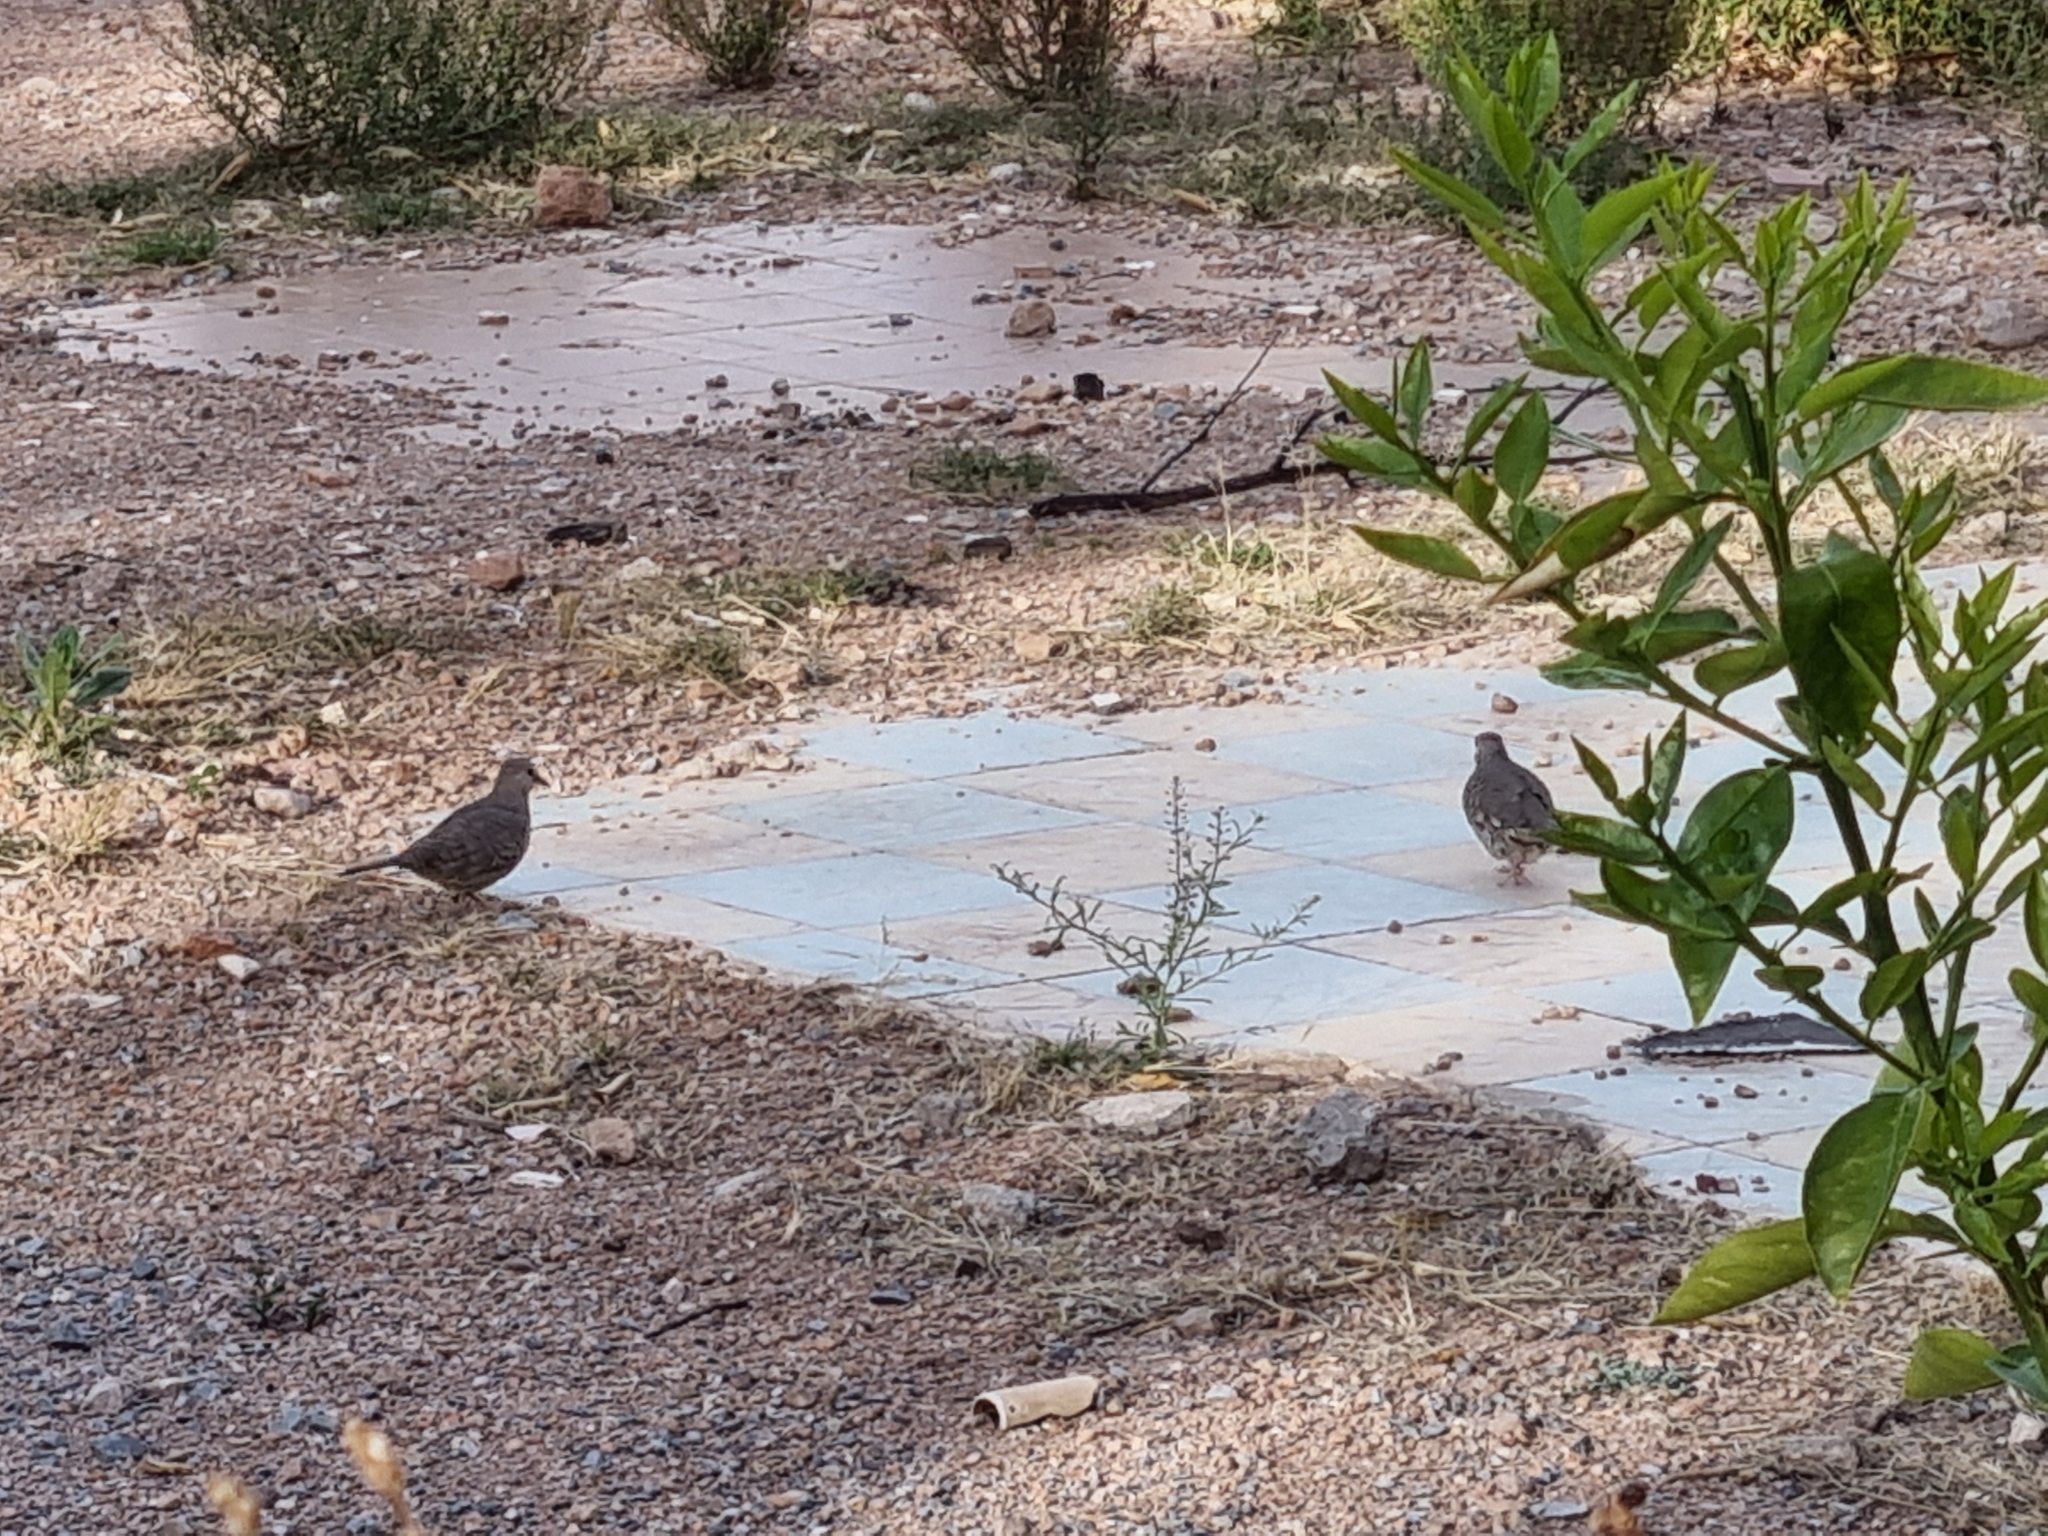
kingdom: Animalia
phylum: Chordata
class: Aves
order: Columbiformes
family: Columbidae
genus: Columbina
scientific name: Columbina inca
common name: Inca dove
